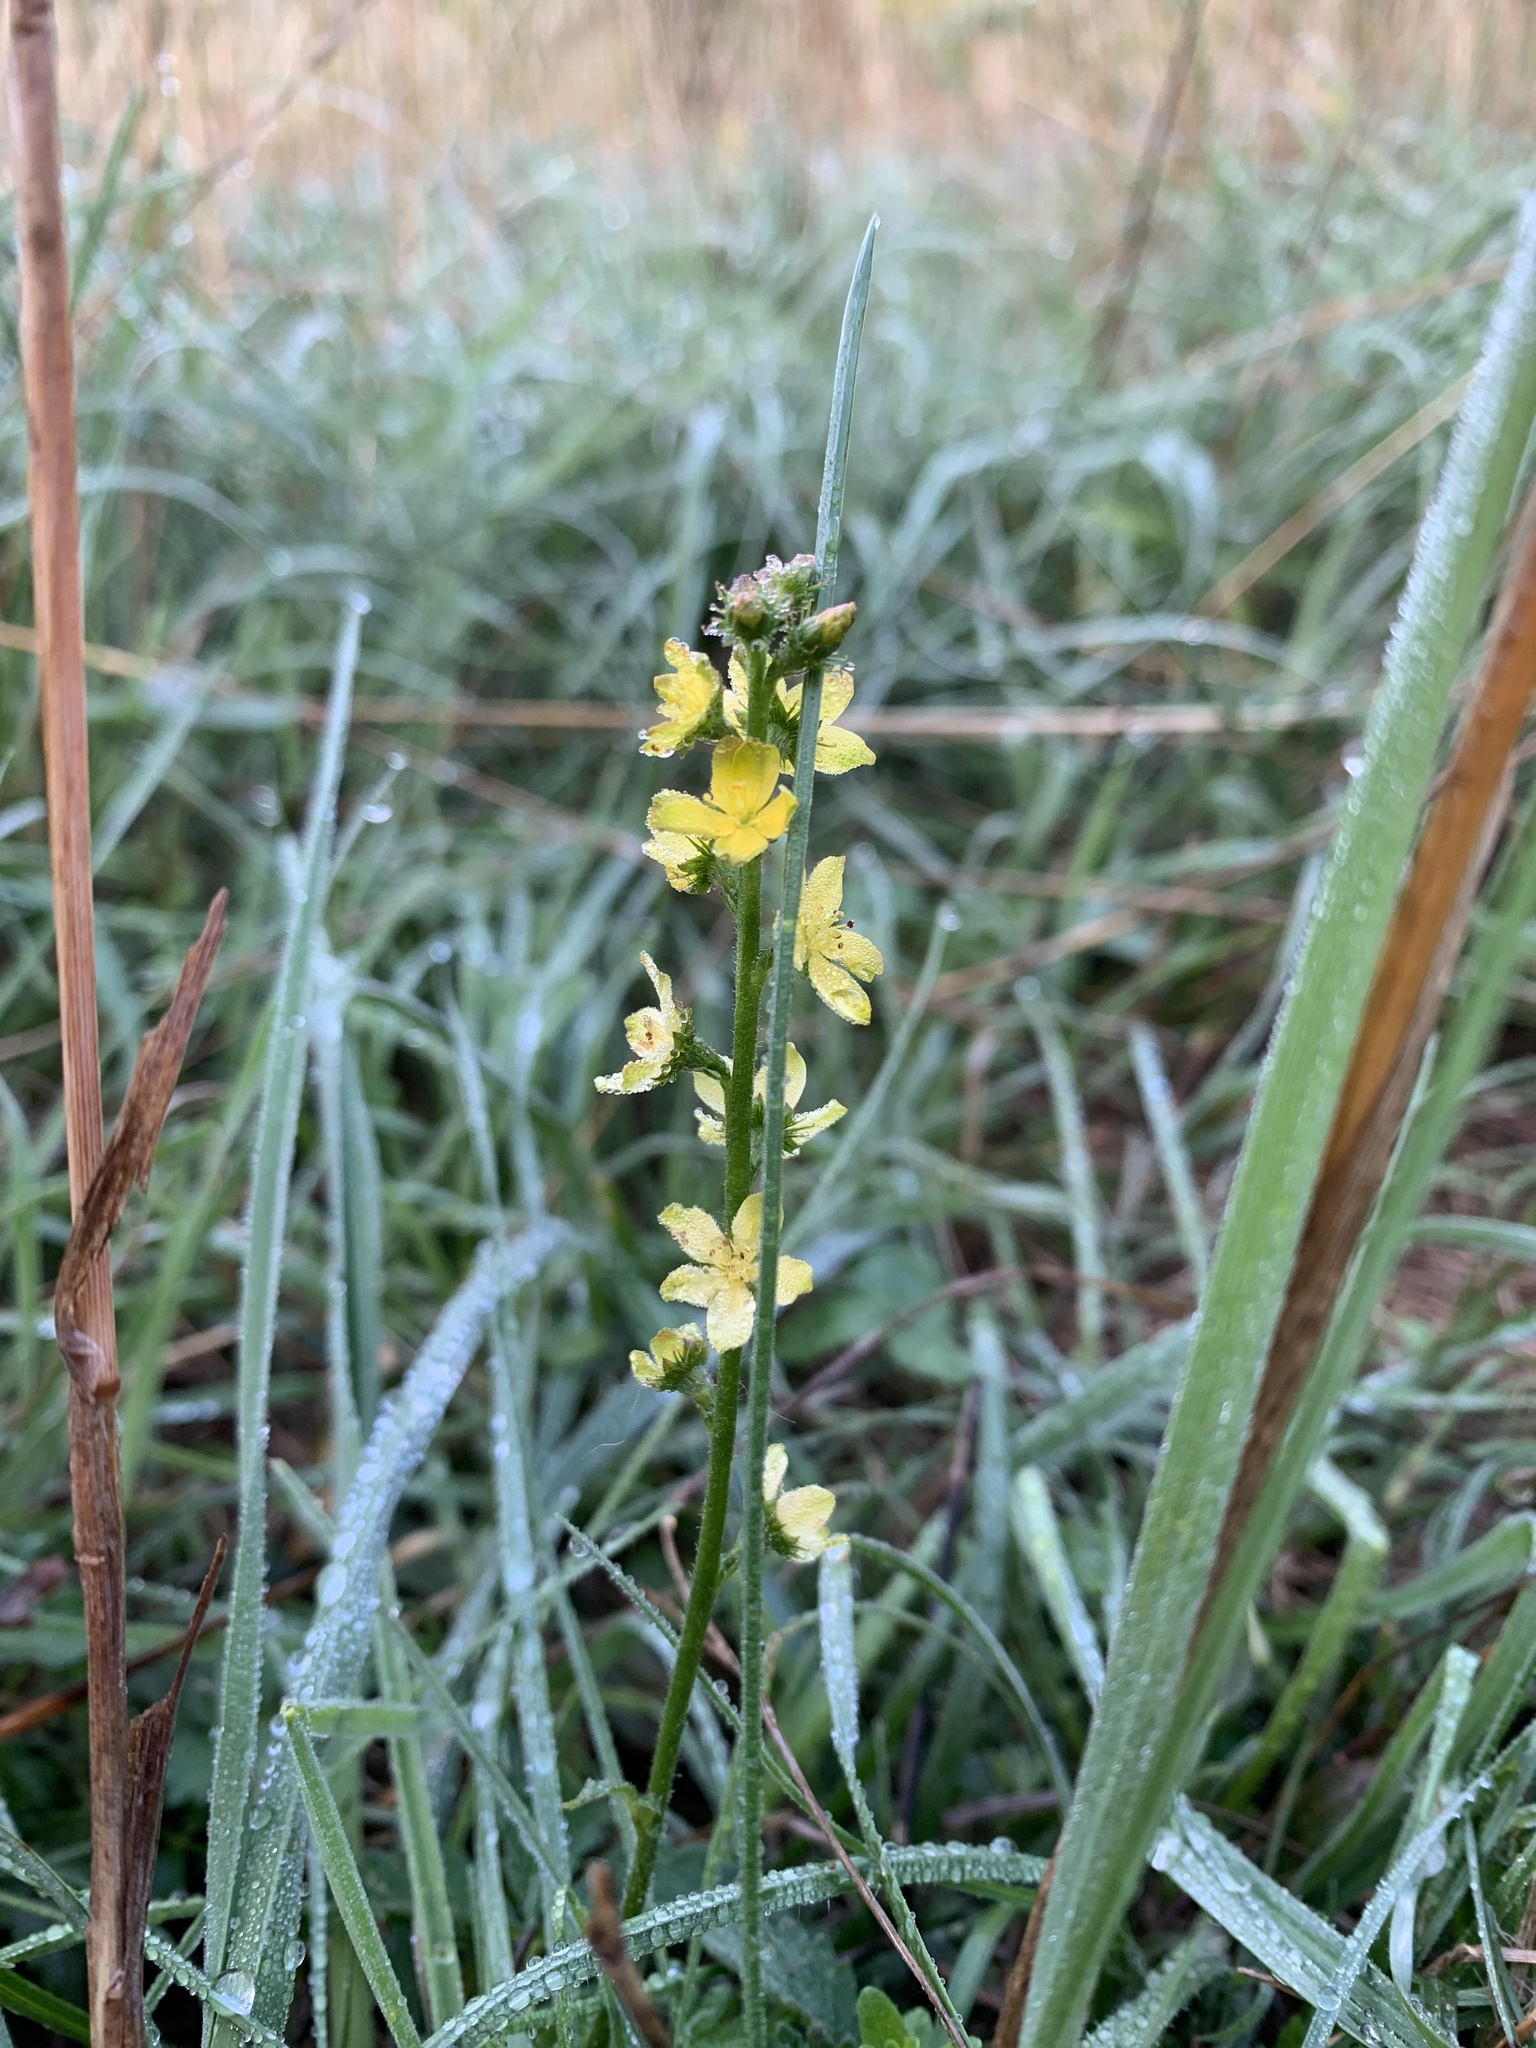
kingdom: Plantae
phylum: Tracheophyta
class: Magnoliopsida
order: Rosales
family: Rosaceae
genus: Agrimonia
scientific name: Agrimonia eupatoria
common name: Agrimony
